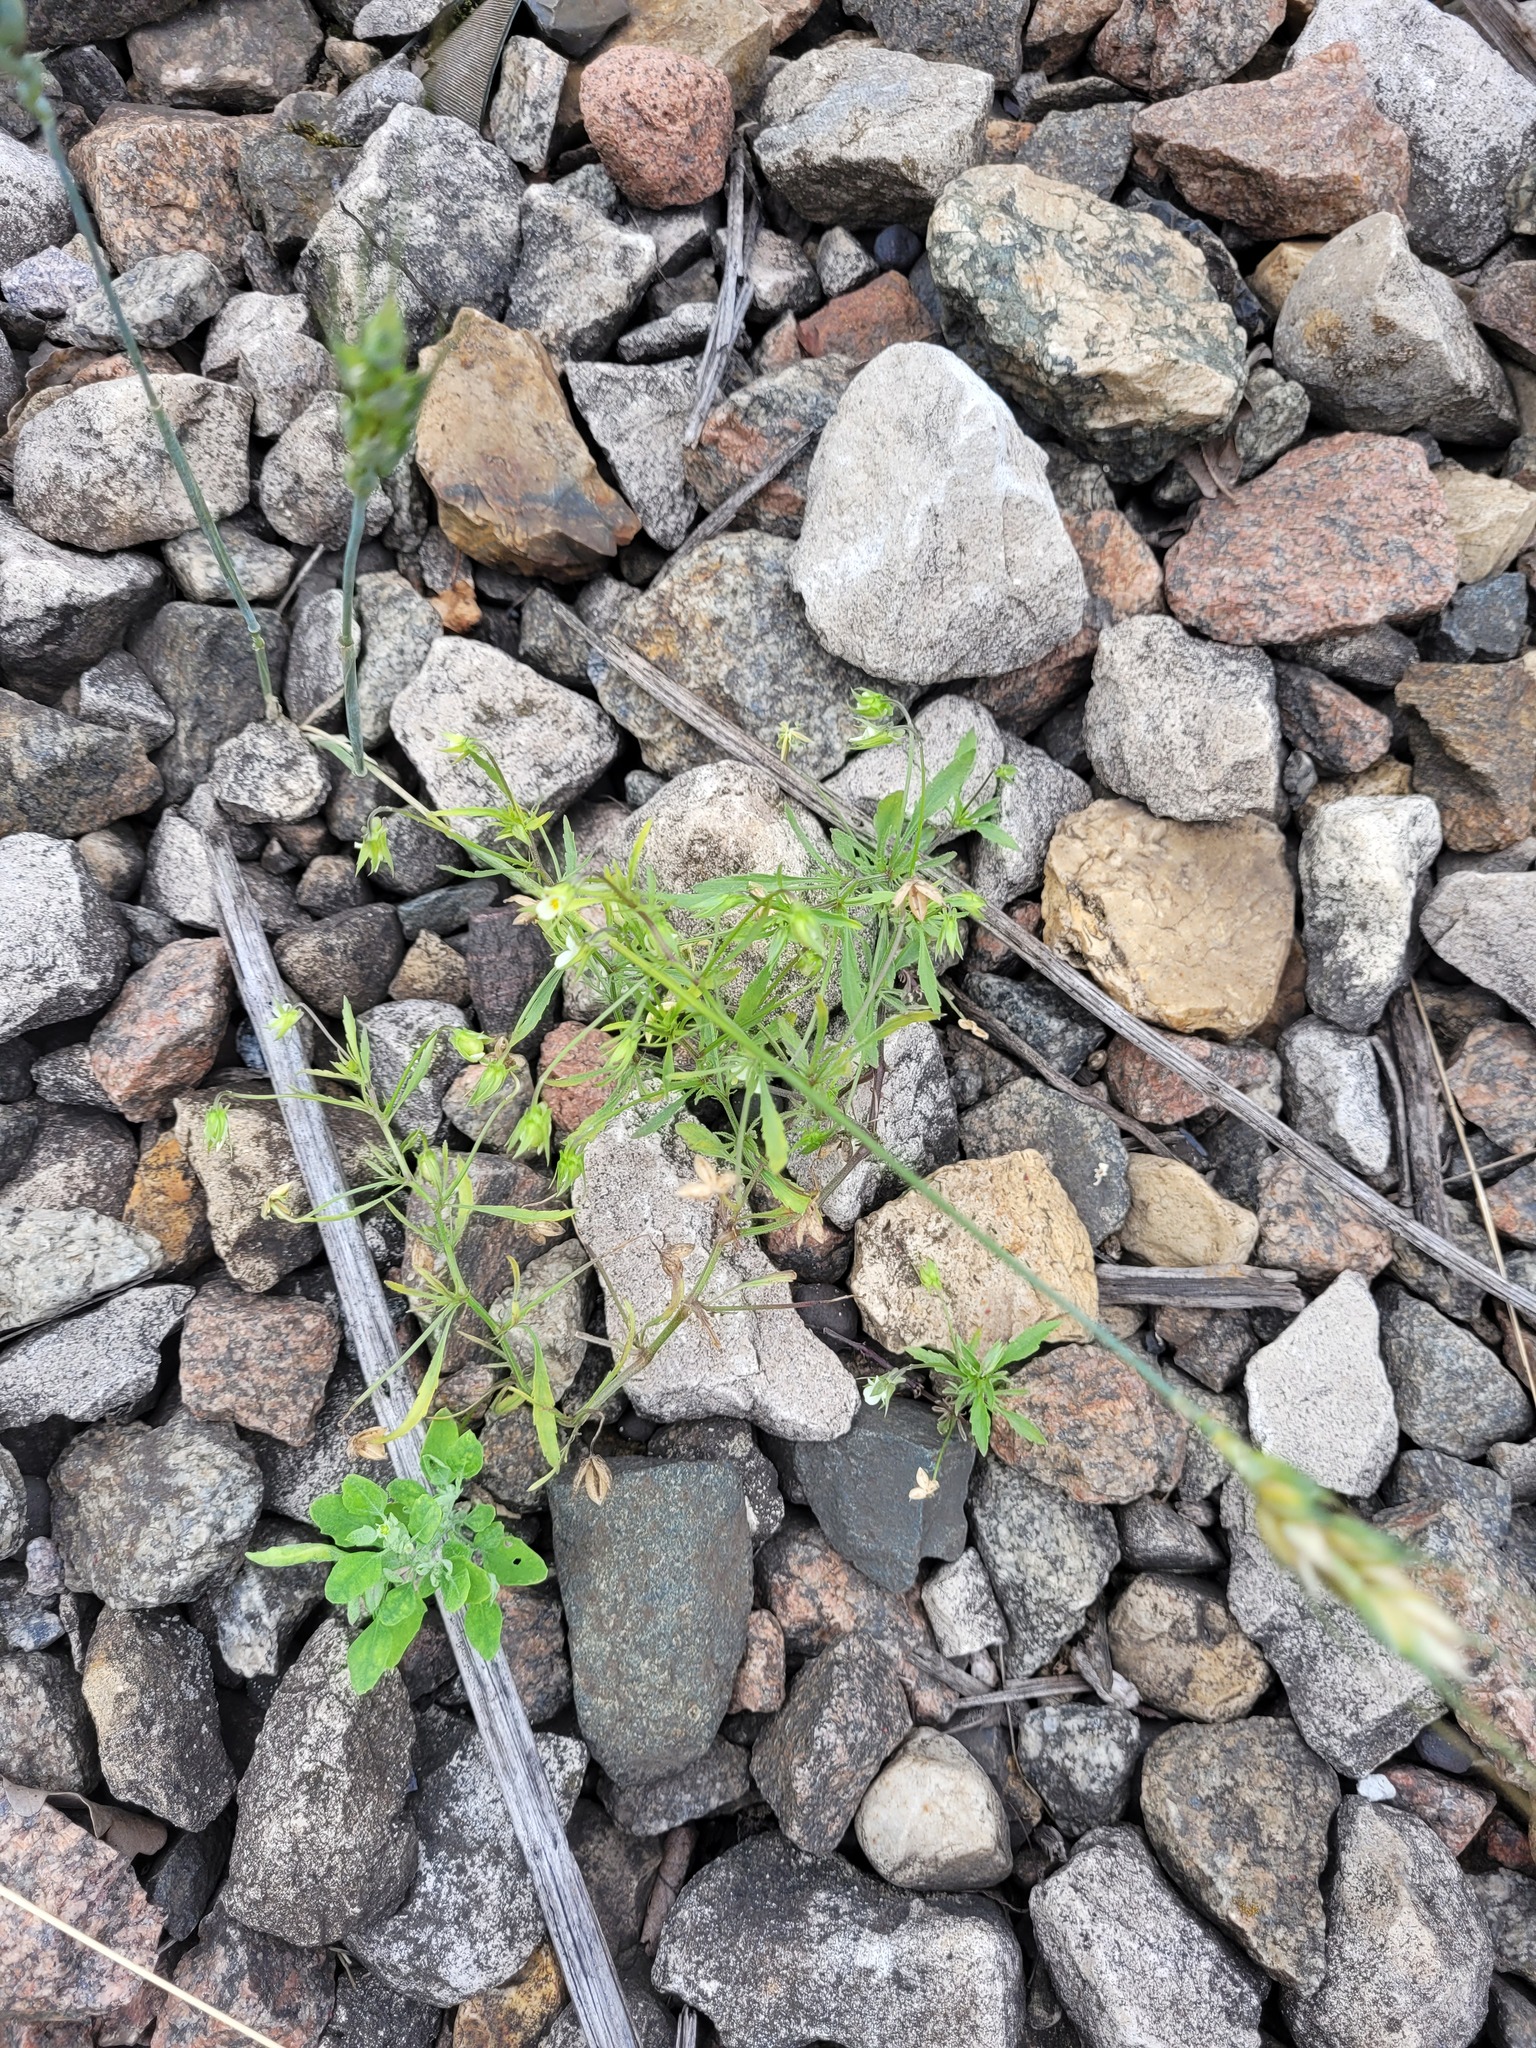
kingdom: Plantae
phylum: Tracheophyta
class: Magnoliopsida
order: Malpighiales
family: Violaceae
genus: Viola
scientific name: Viola arvensis
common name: Field pansy
